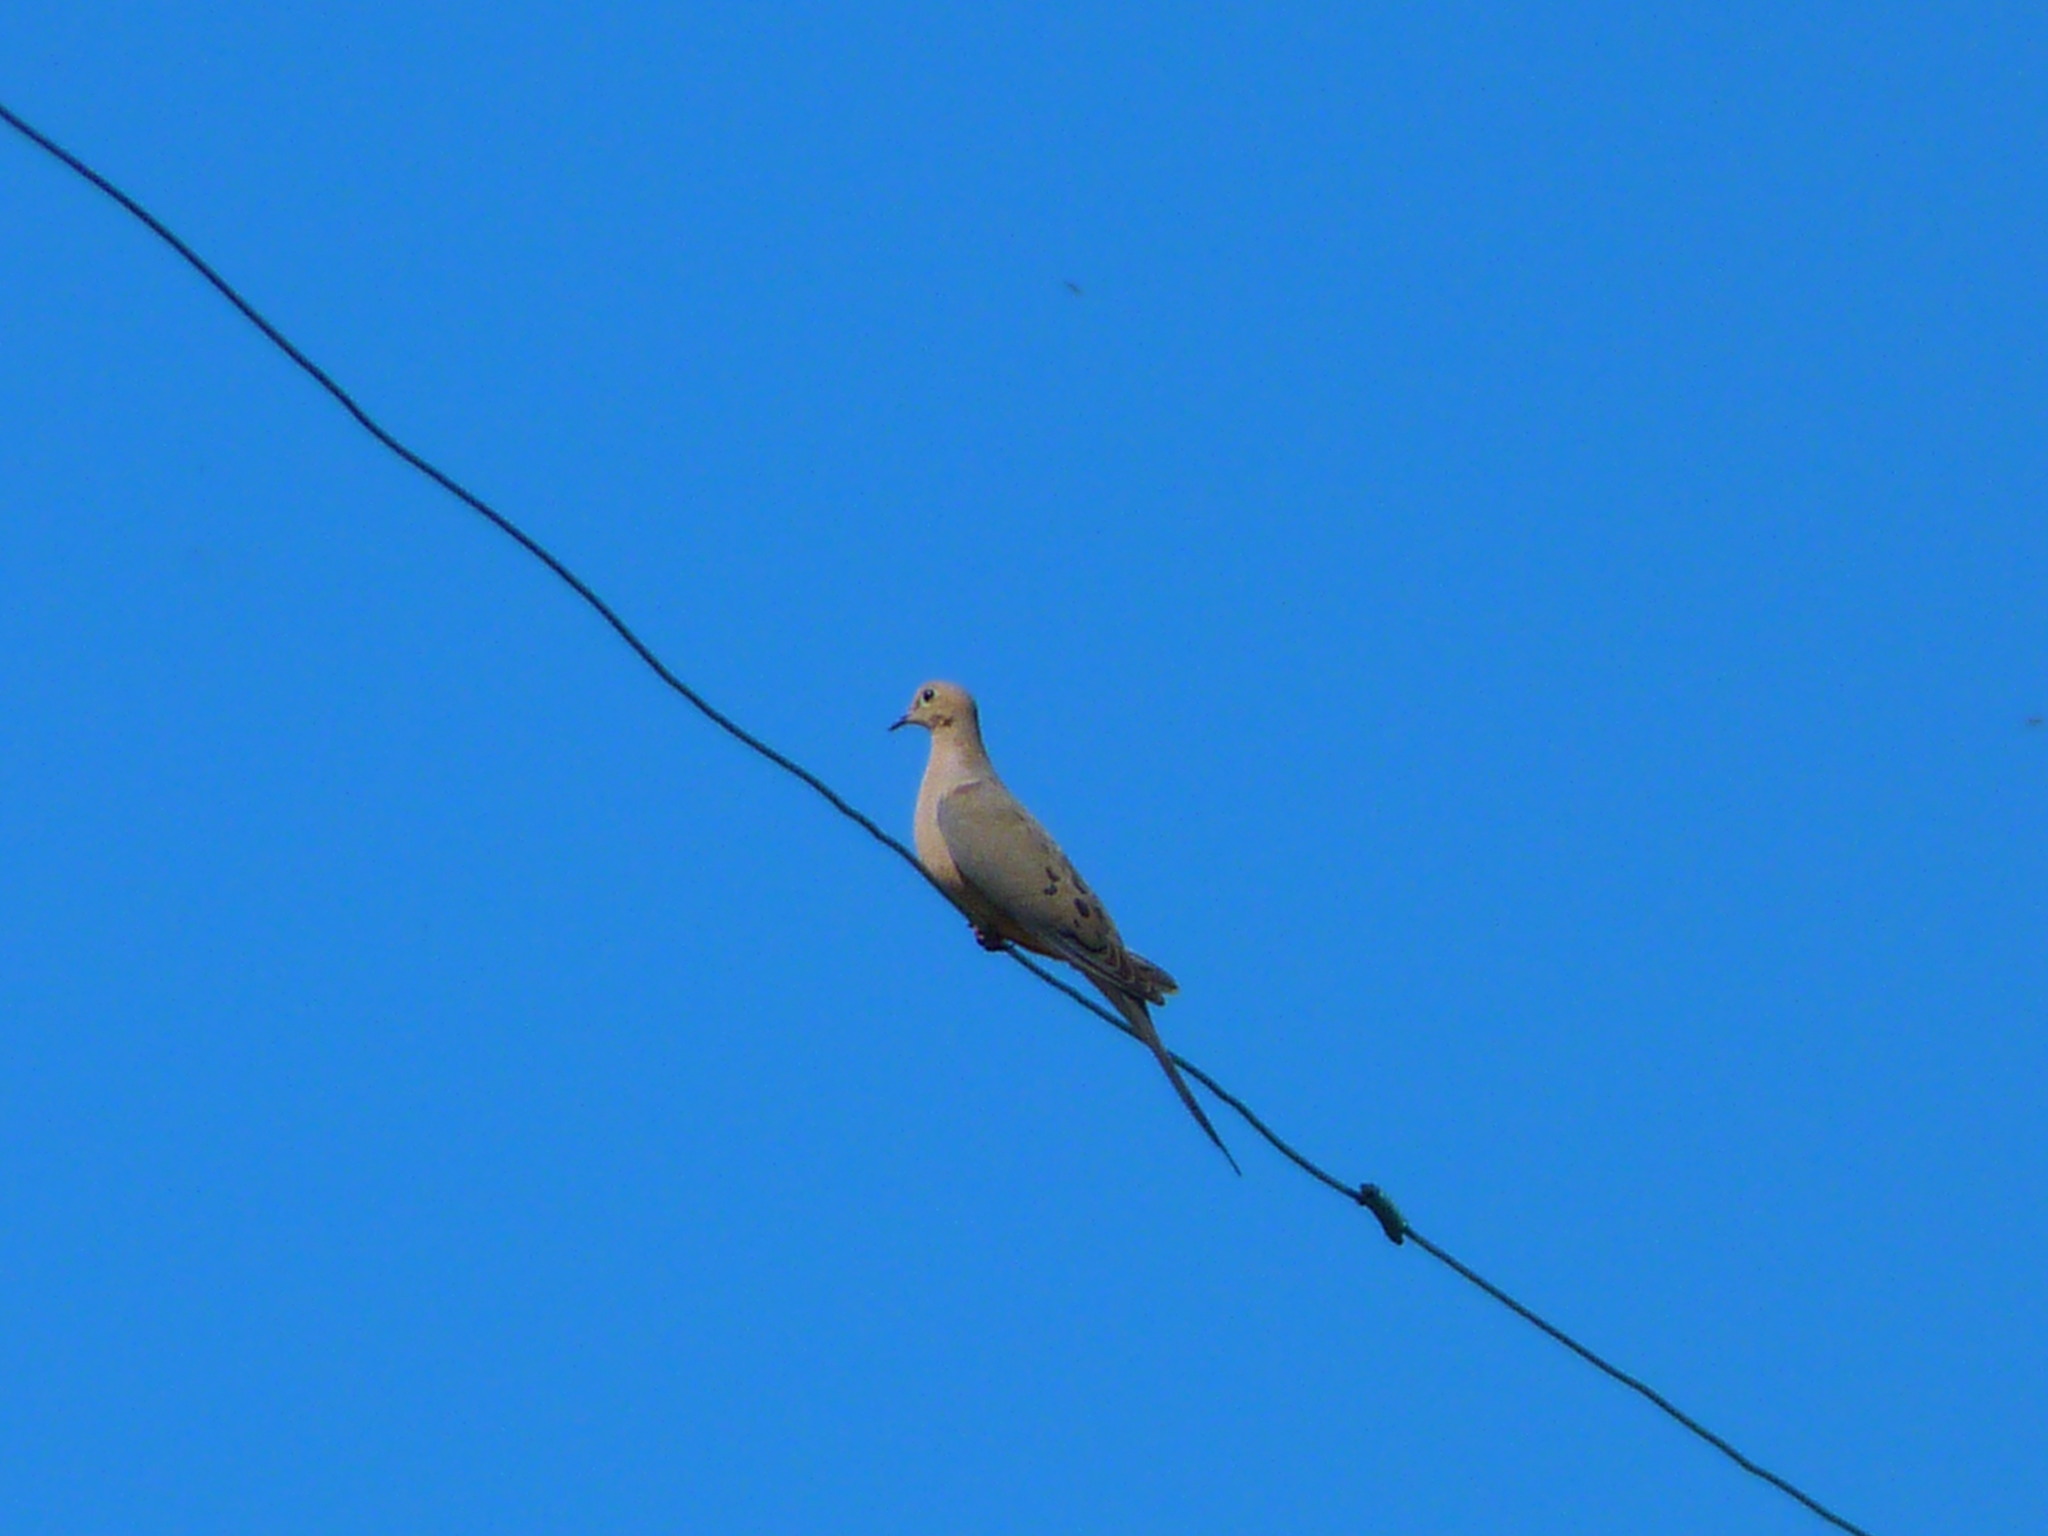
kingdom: Animalia
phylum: Chordata
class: Aves
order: Columbiformes
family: Columbidae
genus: Zenaida
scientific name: Zenaida macroura
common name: Mourning dove
